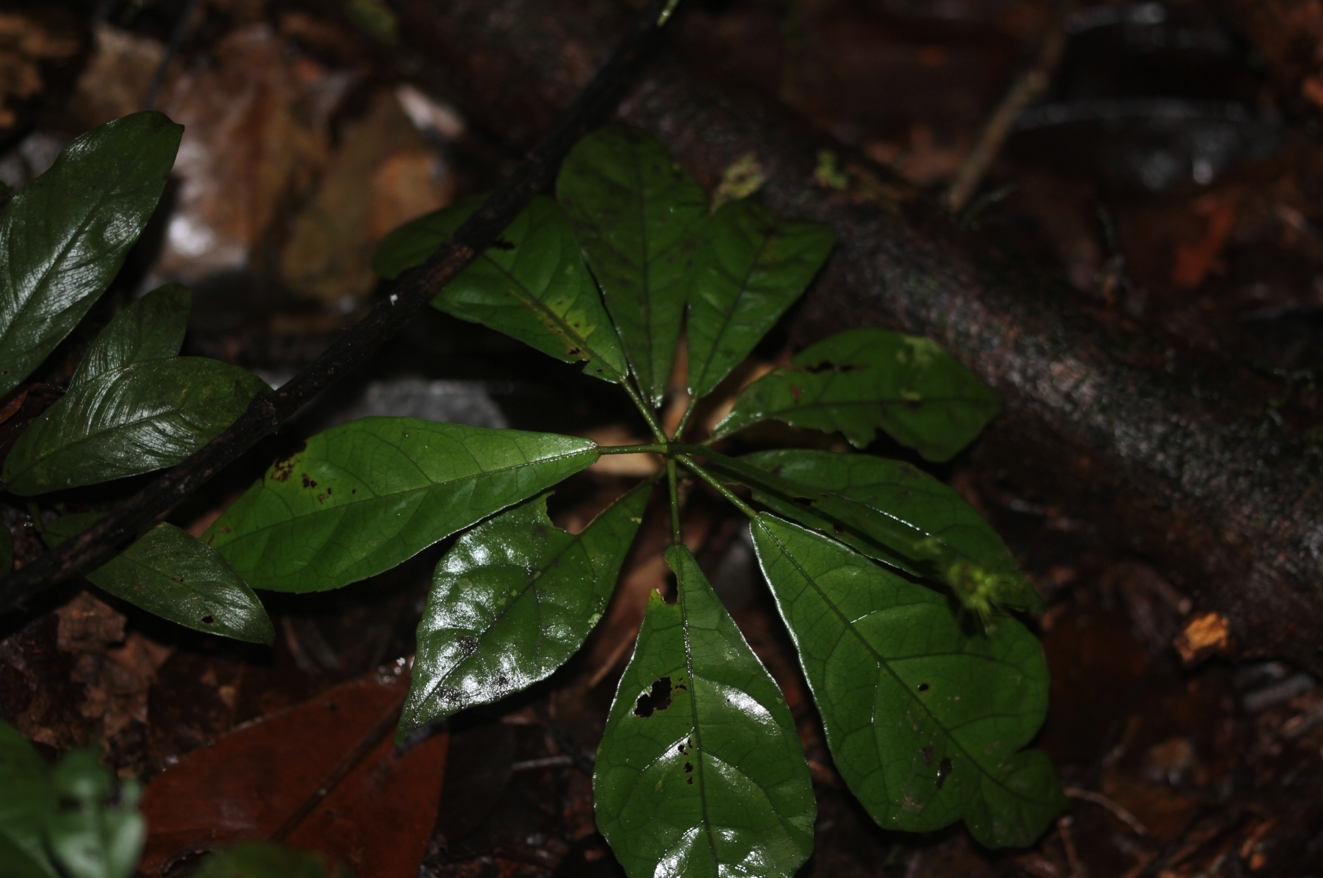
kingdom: Plantae
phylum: Tracheophyta
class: Magnoliopsida
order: Malvales
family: Malvaceae
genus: Pavonia
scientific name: Pavonia castaneifolia
